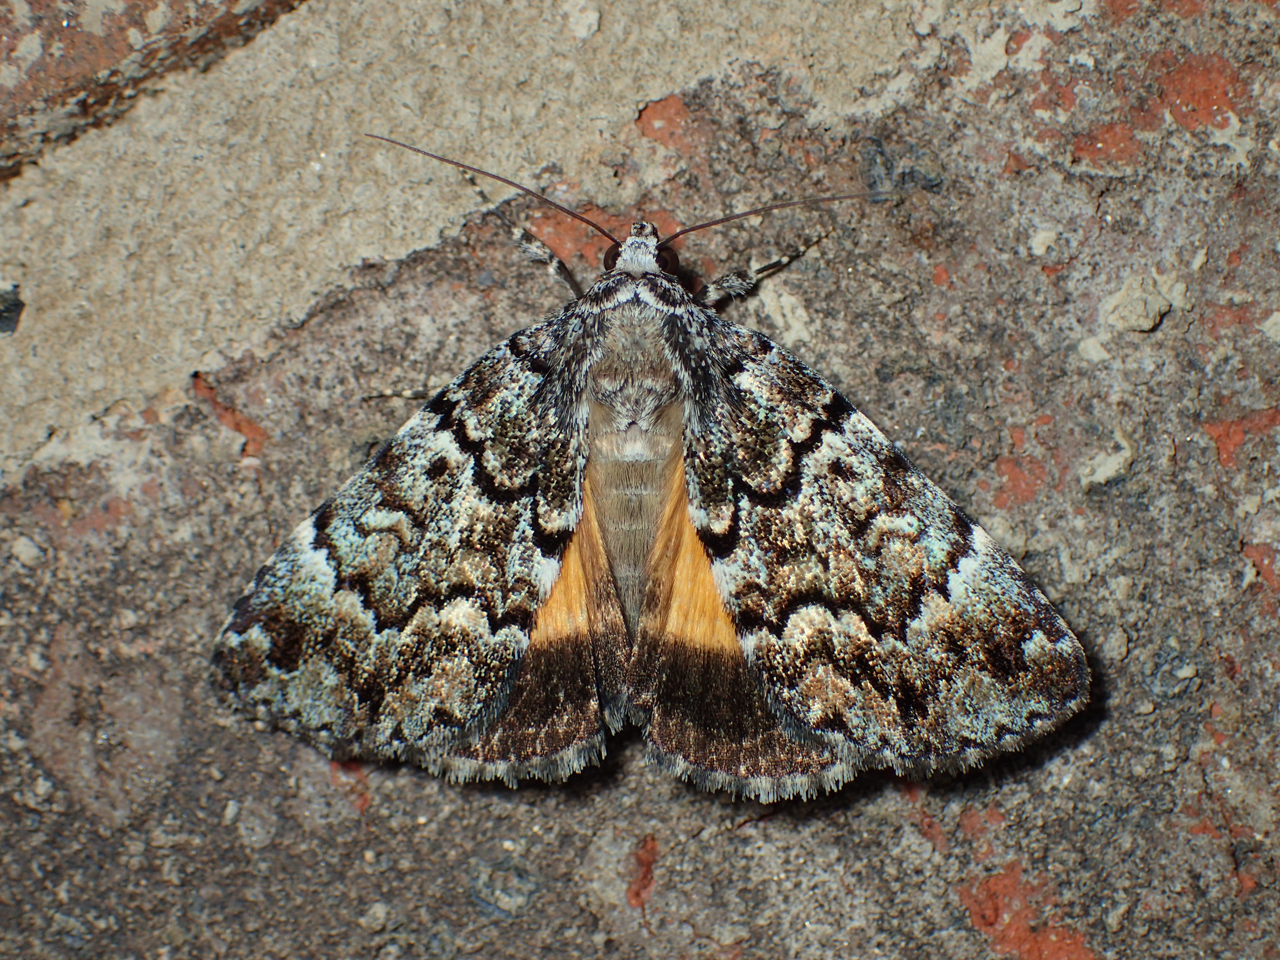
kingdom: Animalia
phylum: Arthropoda
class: Insecta
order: Lepidoptera
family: Erebidae
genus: Allotria
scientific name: Allotria elonympha
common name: False underwing
